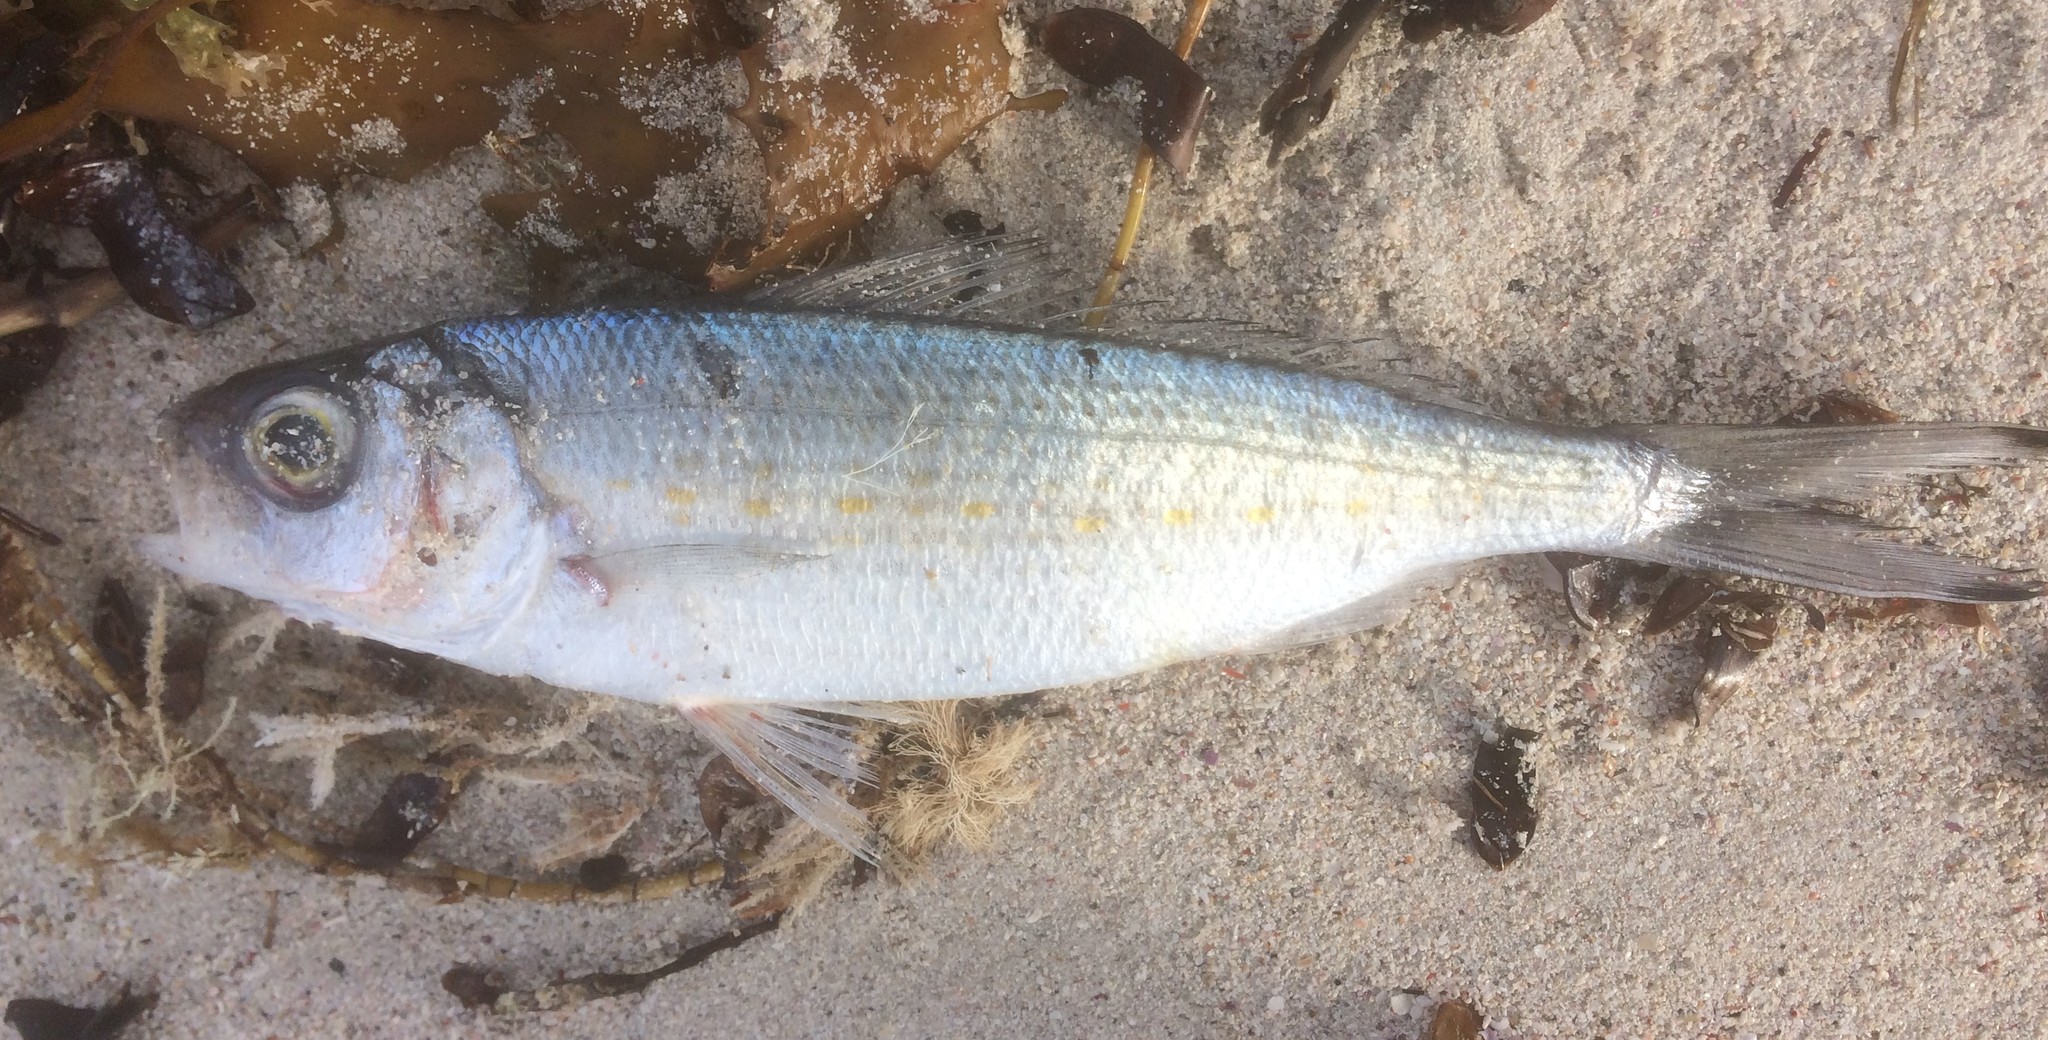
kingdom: Animalia
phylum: Chordata
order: Perciformes
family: Arripidae
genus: Arripis
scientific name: Arripis georgianus
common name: Australian herring
